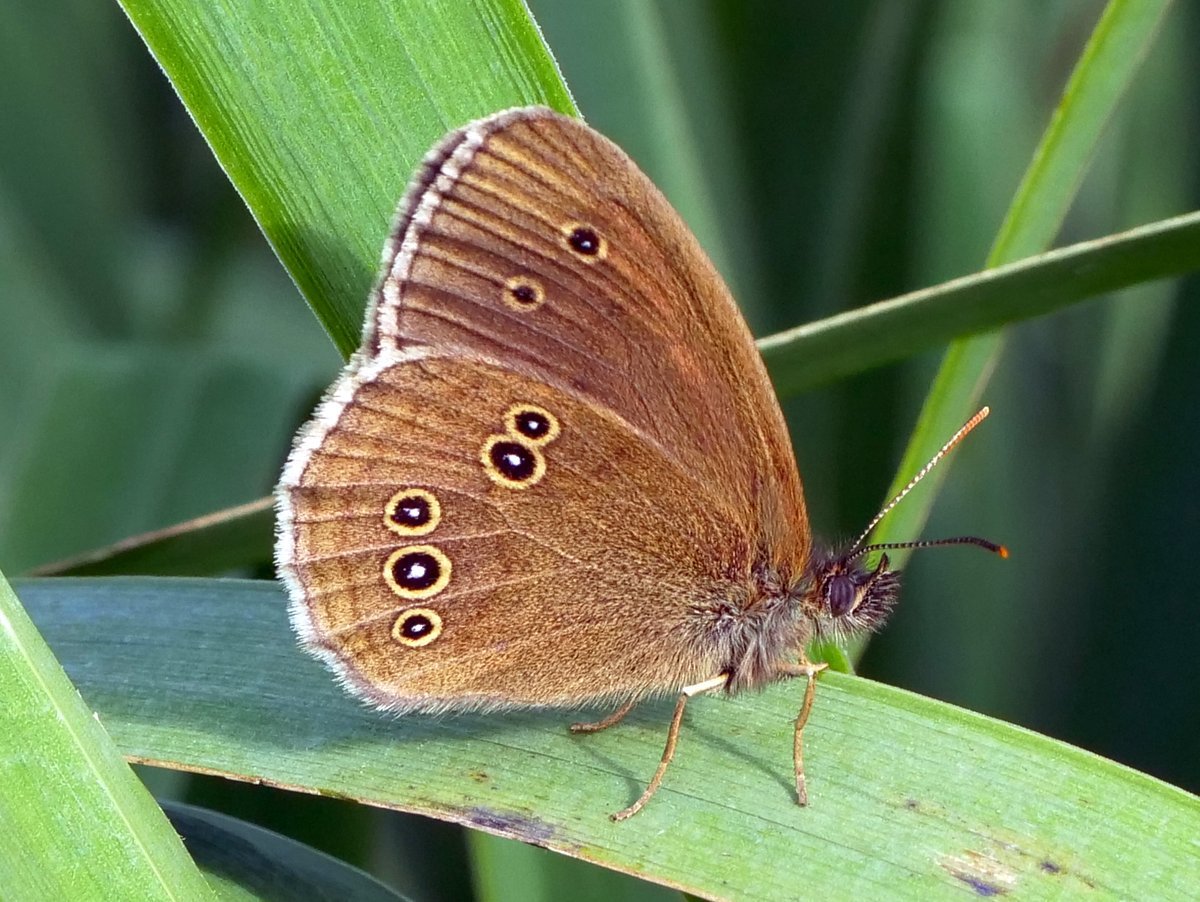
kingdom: Animalia
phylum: Arthropoda
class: Insecta
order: Lepidoptera
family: Nymphalidae
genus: Aphantopus
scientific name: Aphantopus hyperantus
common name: Ringlet
